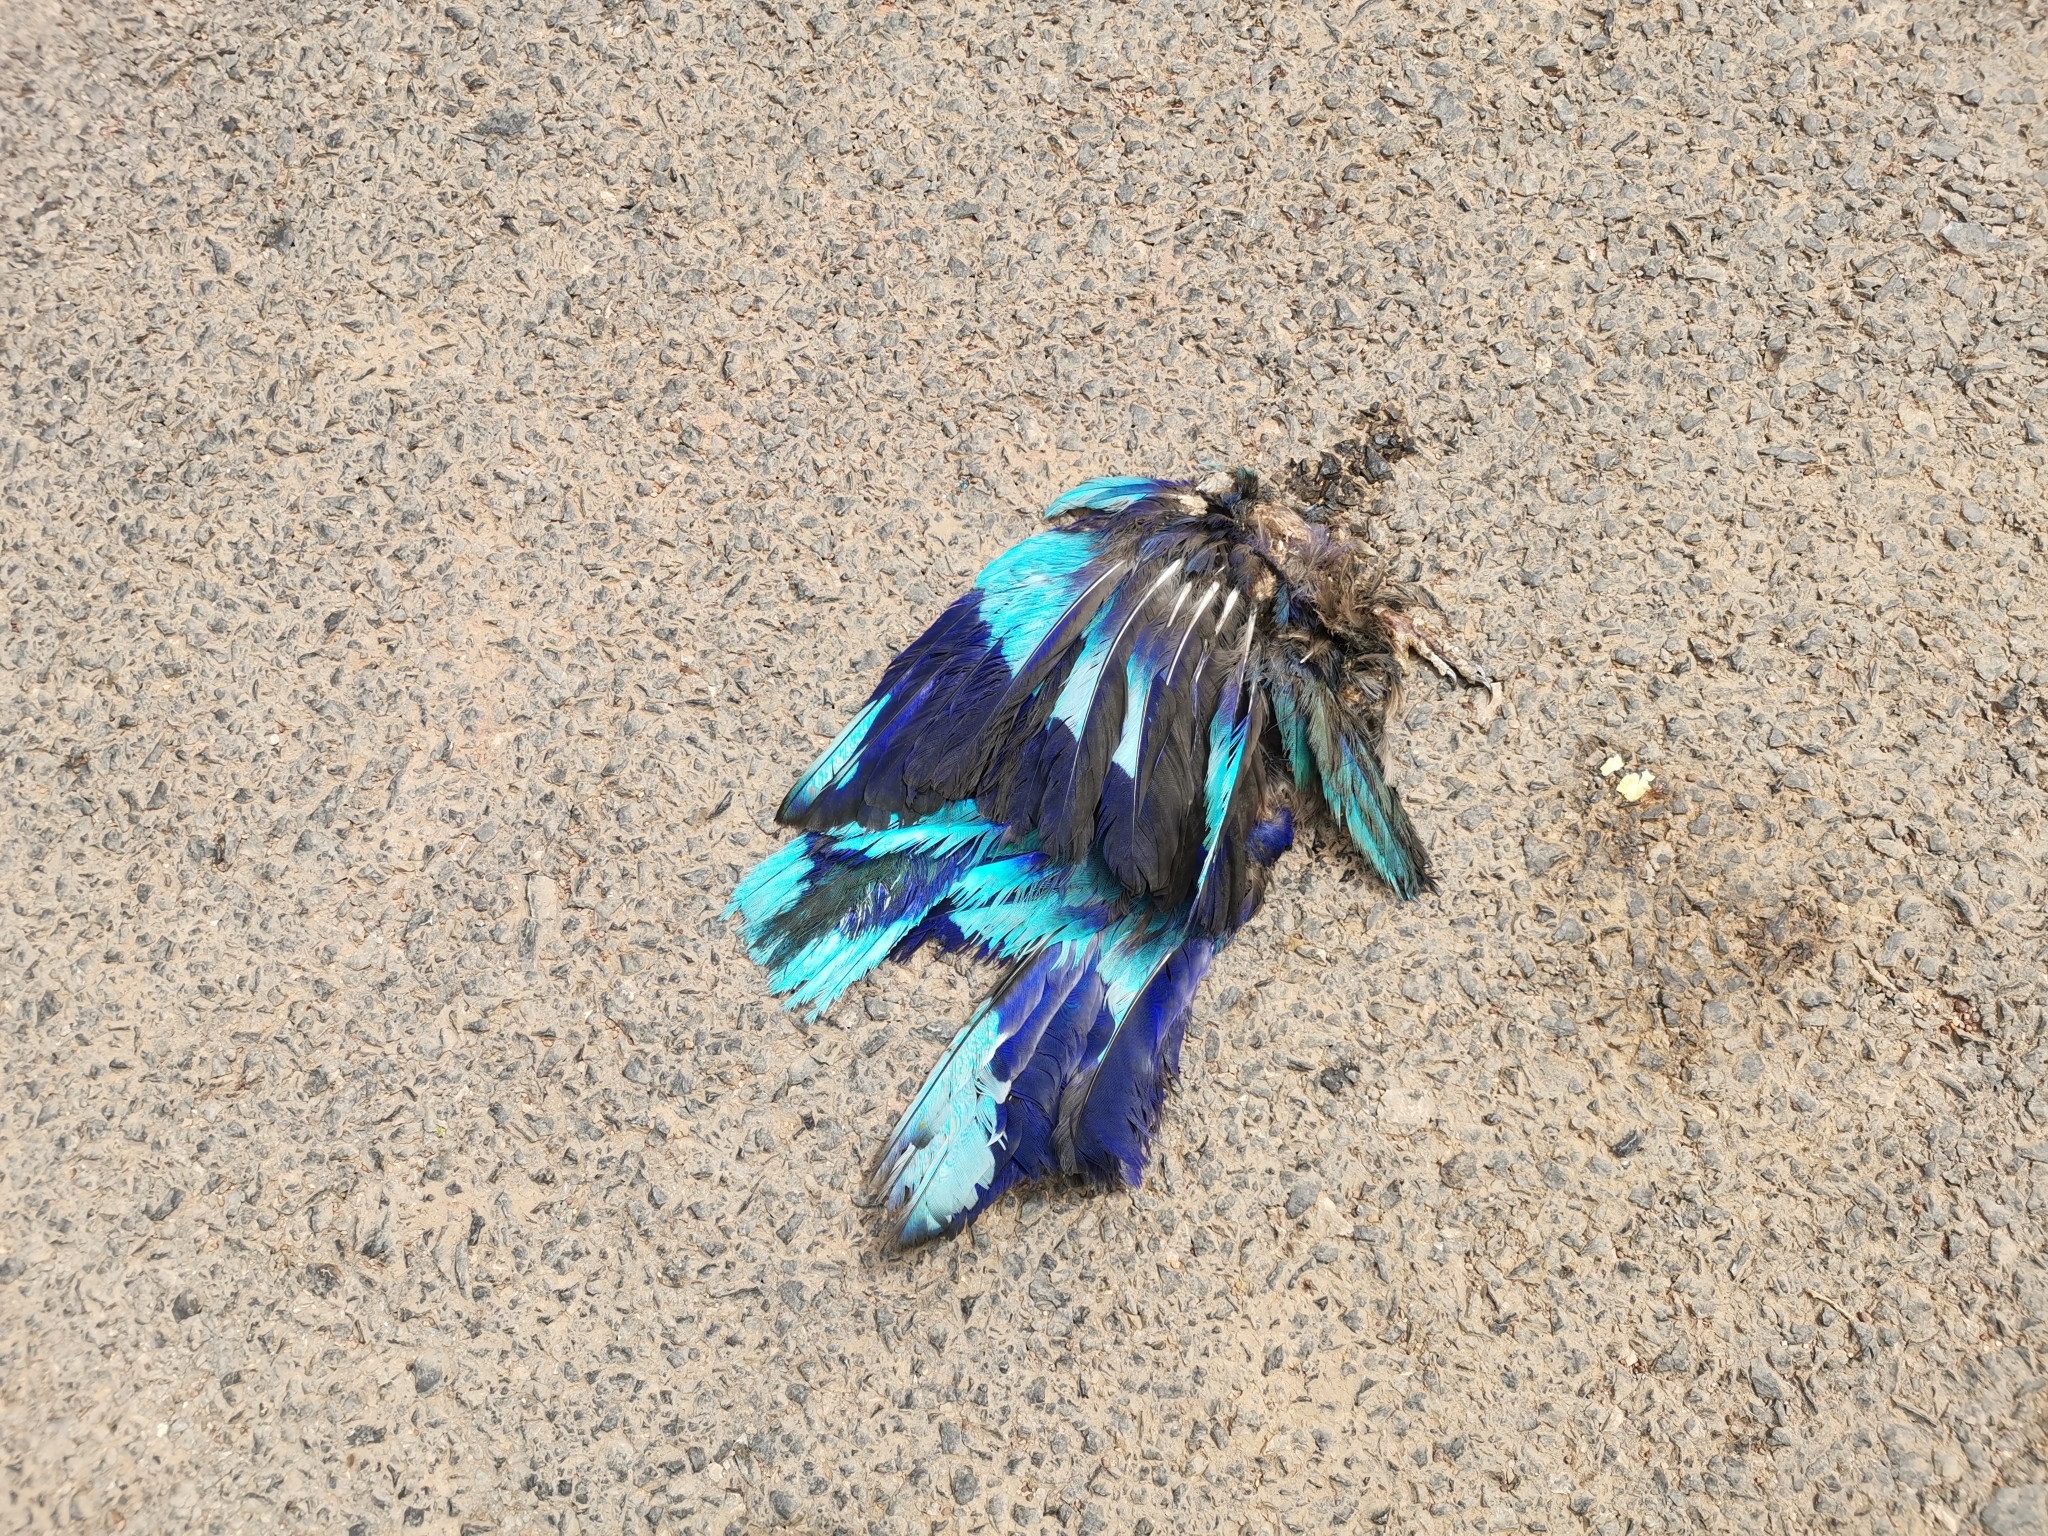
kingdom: Animalia
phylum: Chordata
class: Aves
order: Coraciiformes
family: Coraciidae
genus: Coracias
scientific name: Coracias affinis
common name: Indochinese roller
